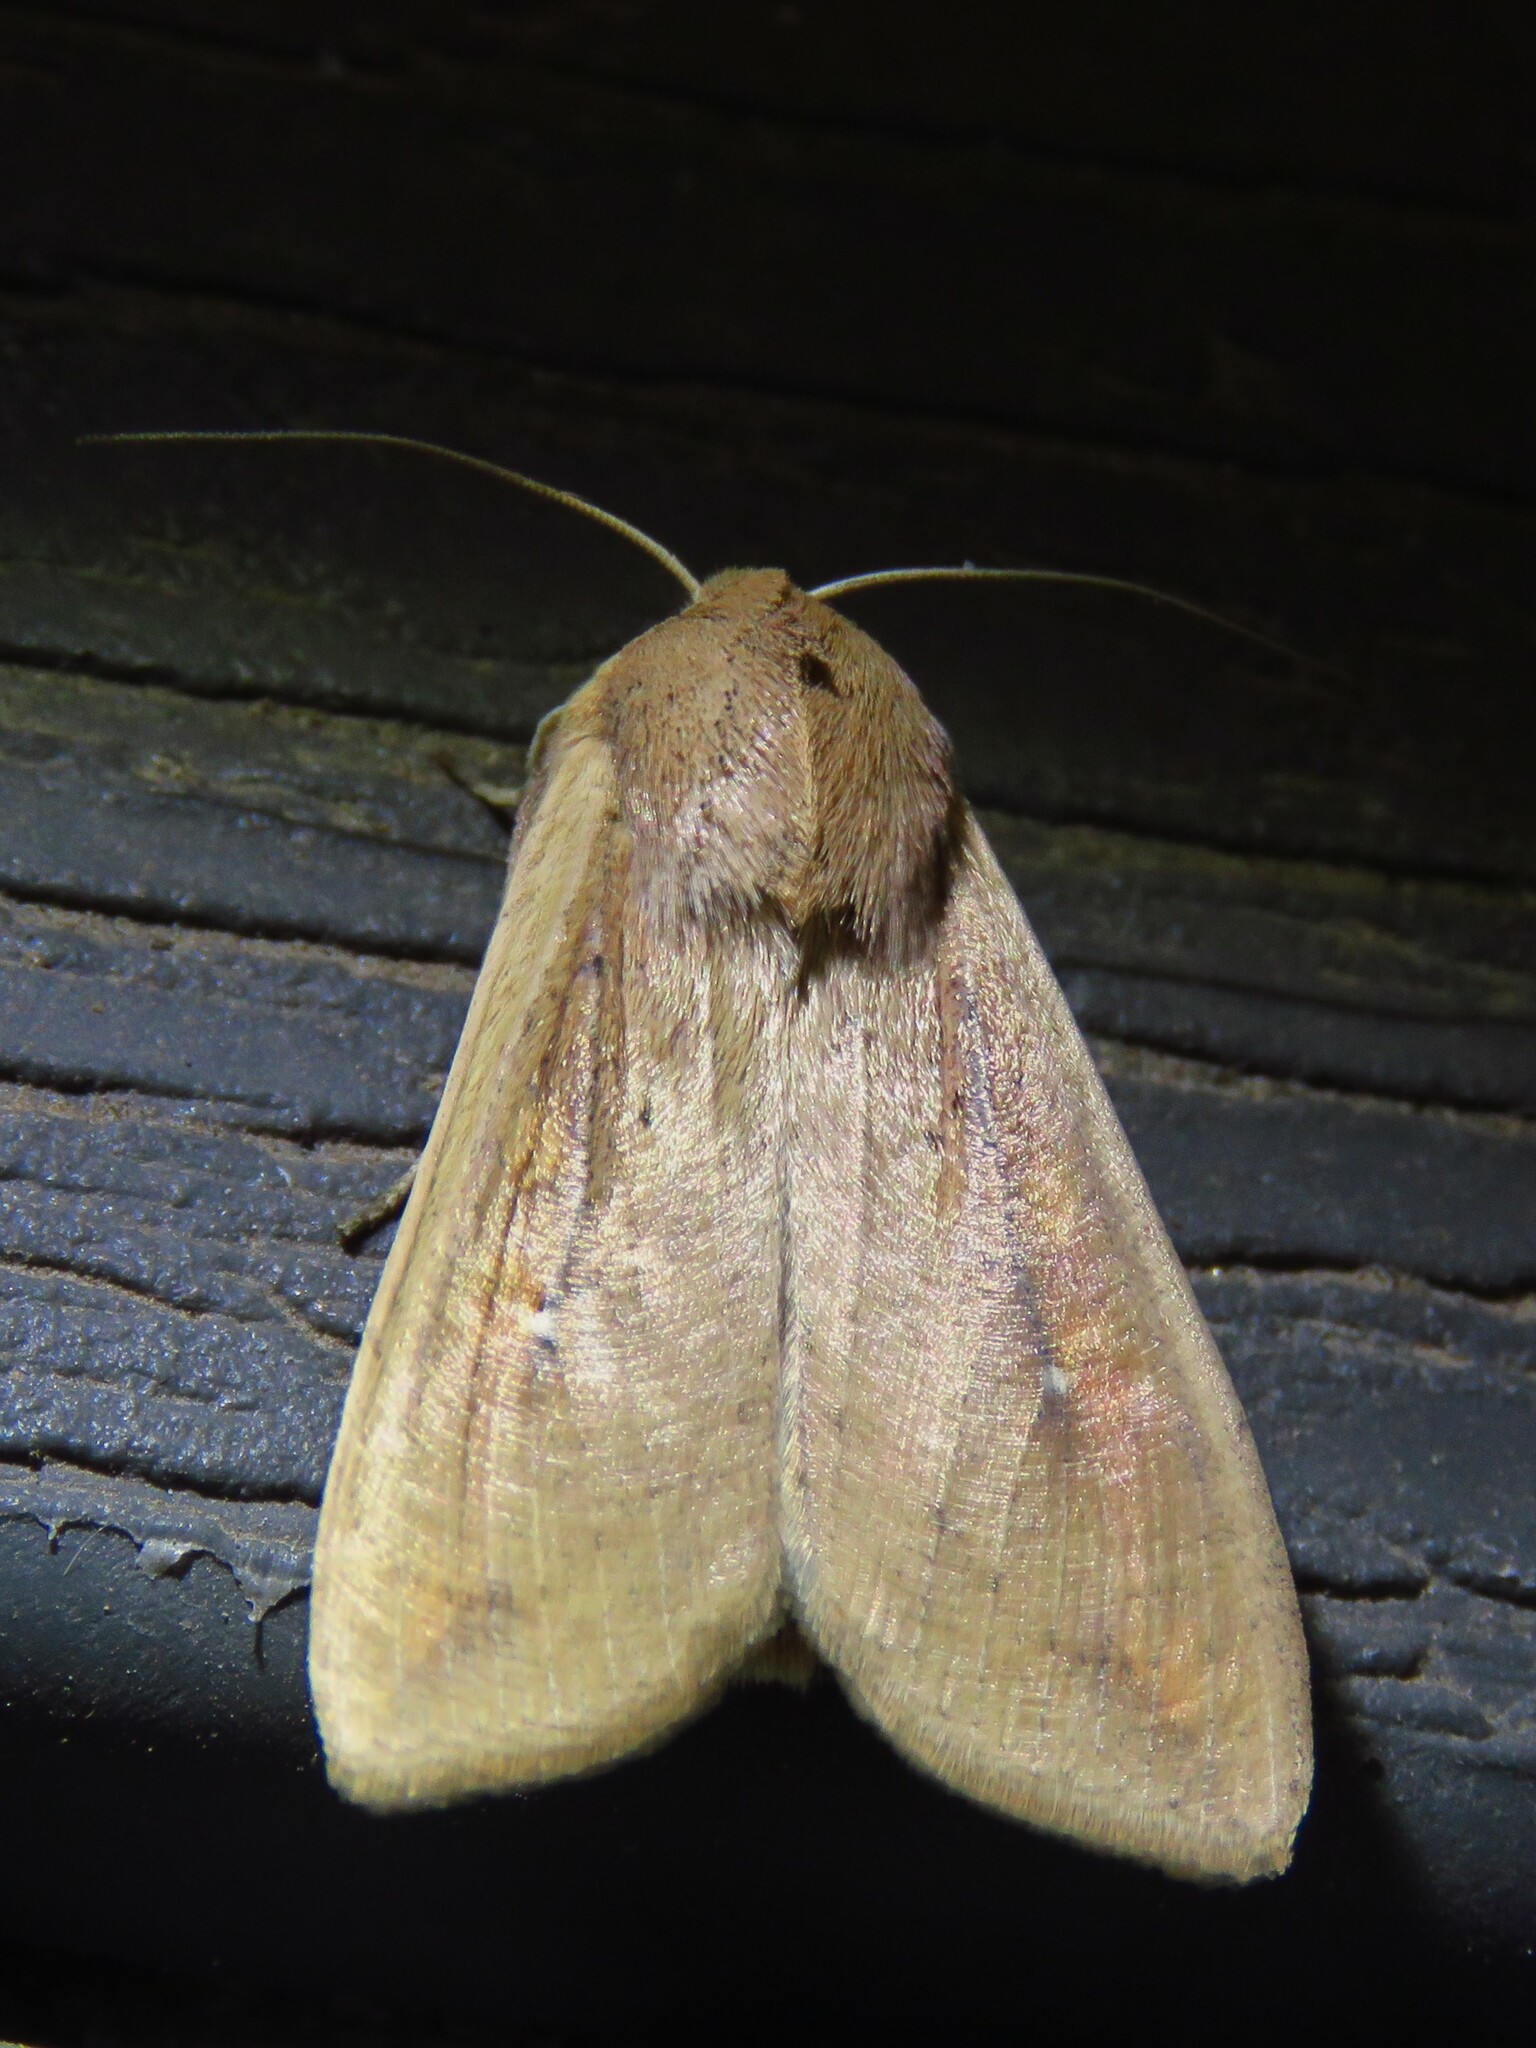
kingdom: Animalia
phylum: Arthropoda
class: Insecta
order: Lepidoptera
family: Noctuidae
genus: Mythimna
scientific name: Mythimna unipuncta
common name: White-speck
